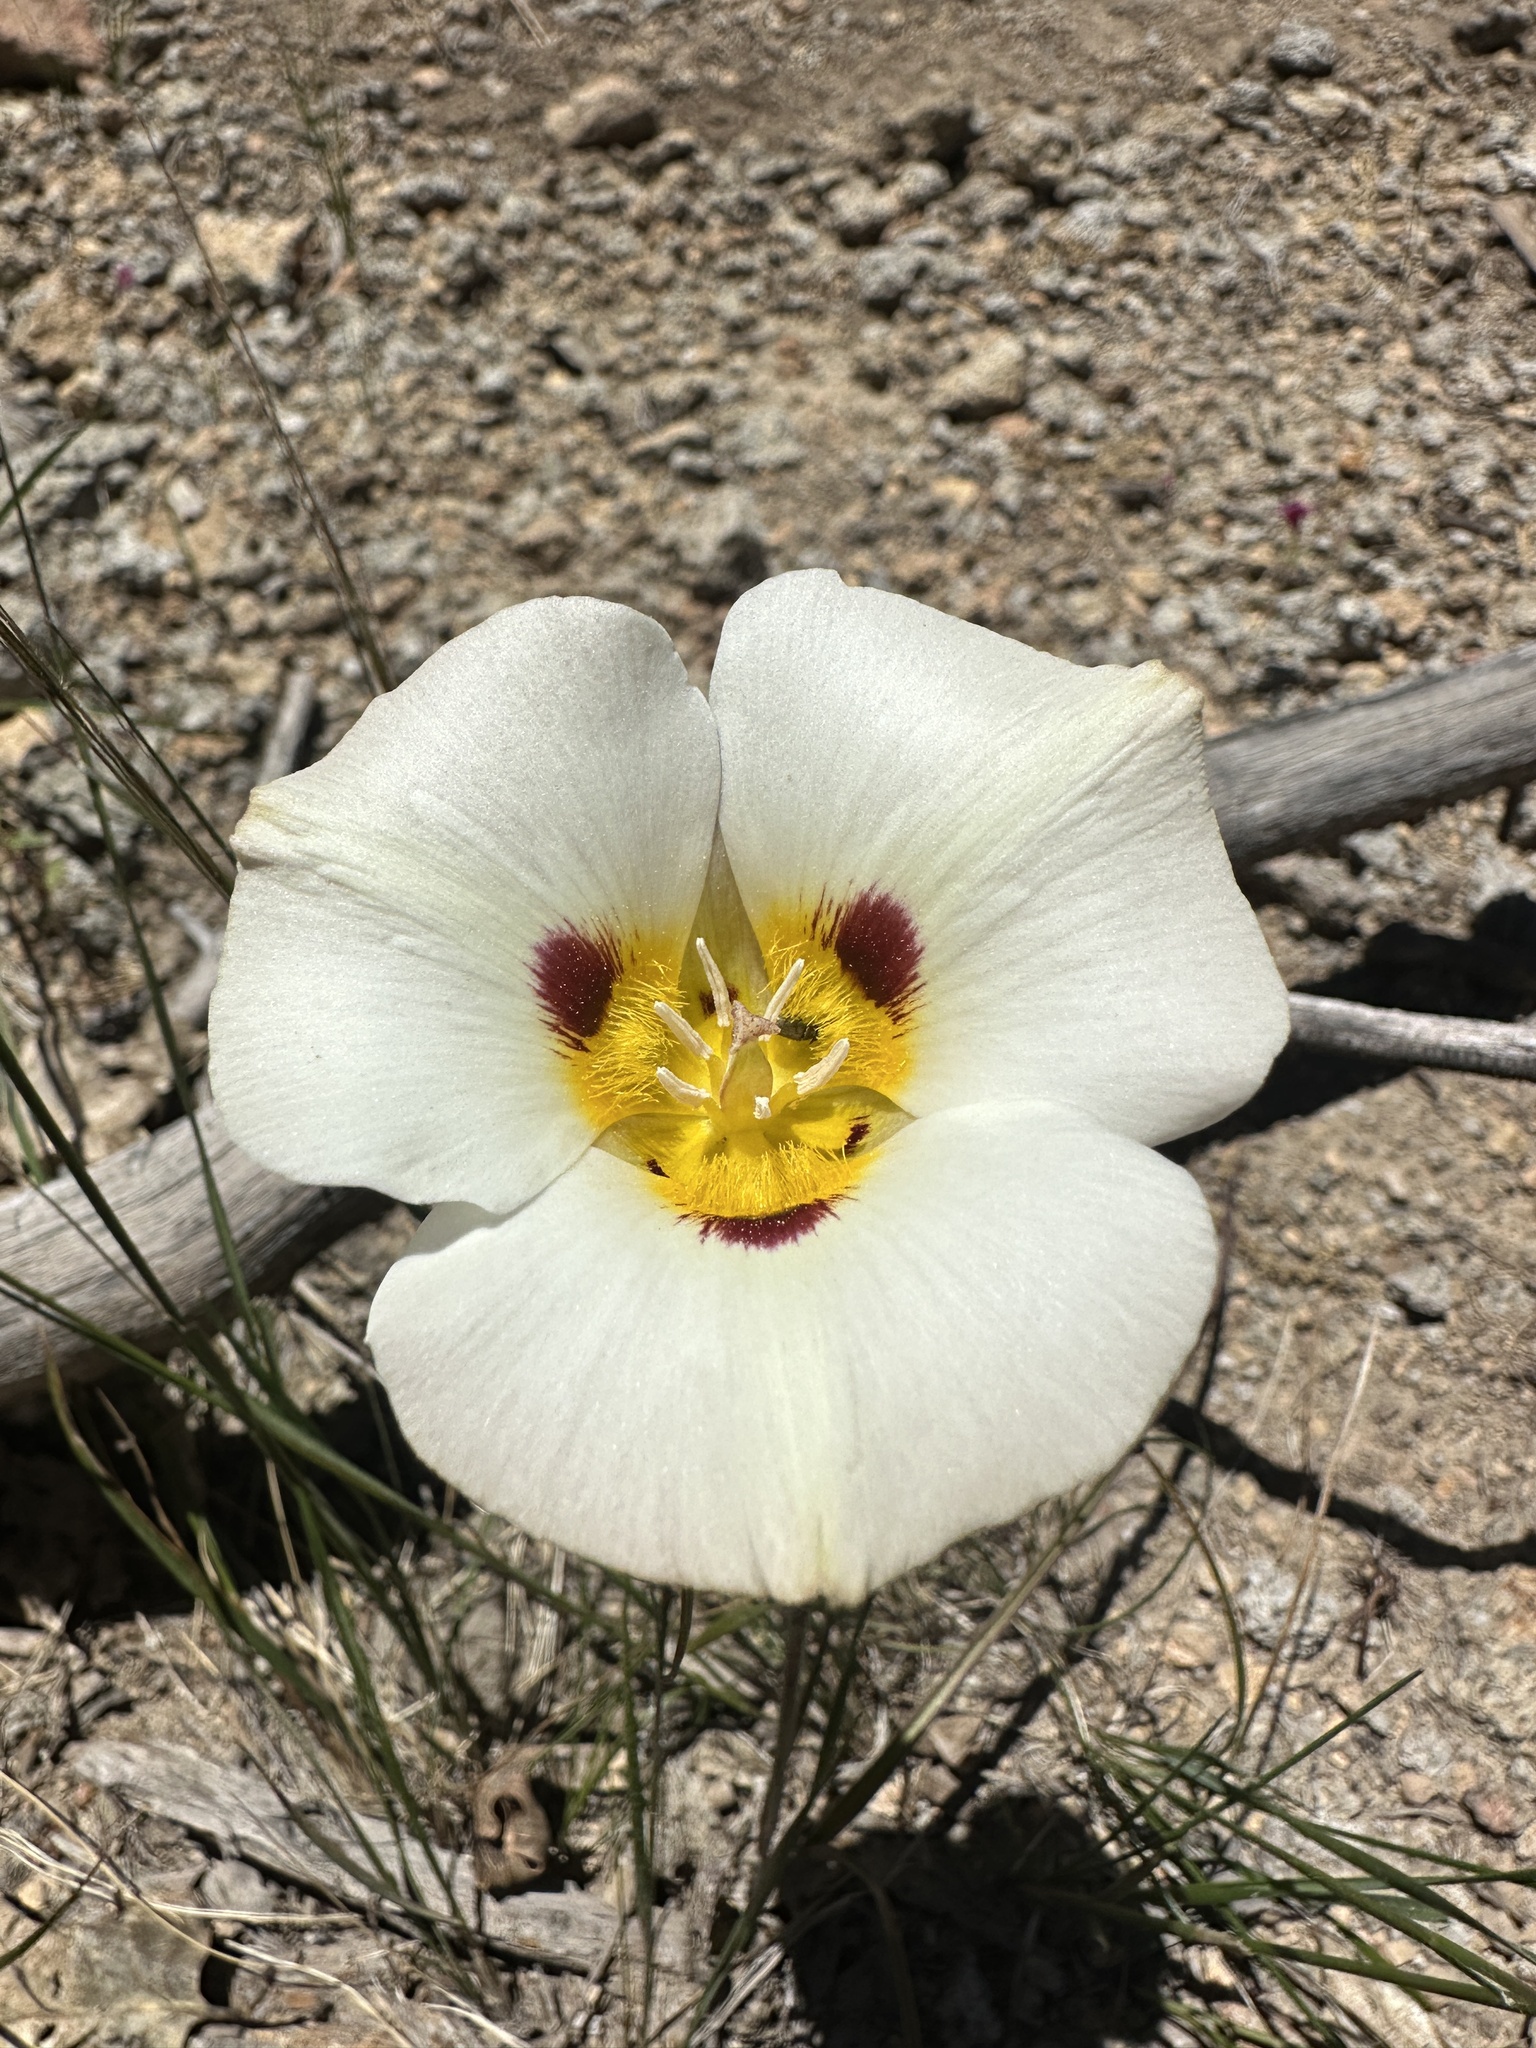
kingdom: Plantae
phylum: Tracheophyta
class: Liliopsida
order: Liliales
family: Liliaceae
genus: Calochortus
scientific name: Calochortus leichtlinii
